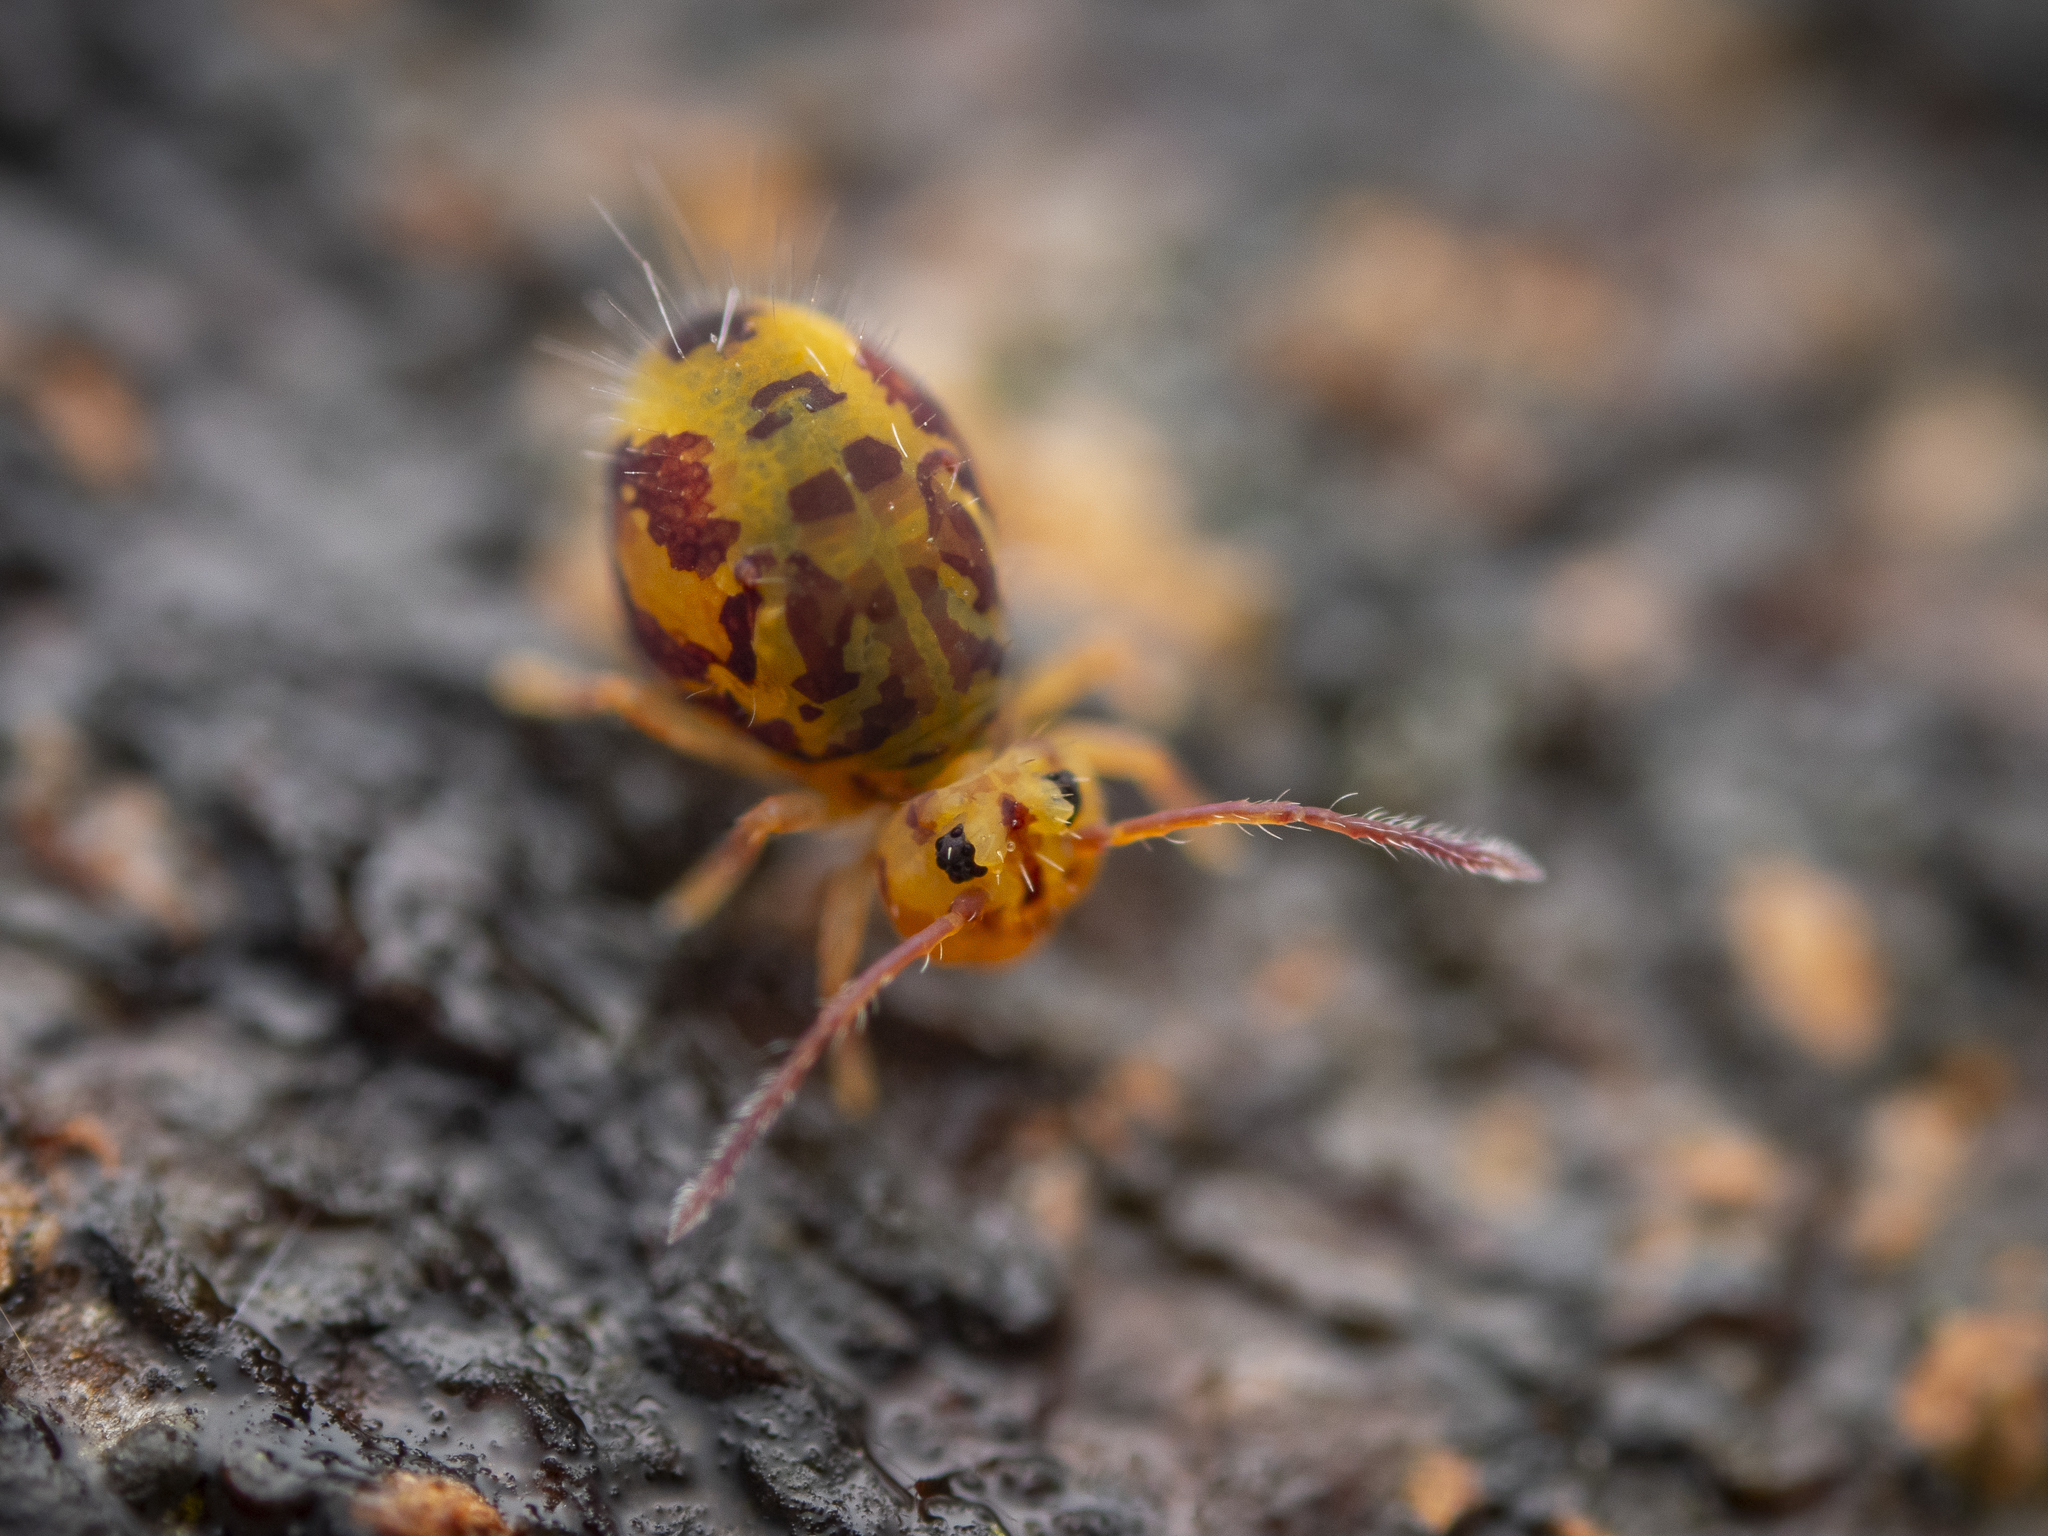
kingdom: Animalia
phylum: Arthropoda
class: Collembola
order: Symphypleona
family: Dicyrtomidae
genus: Dicyrtomina
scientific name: Dicyrtomina ornata
